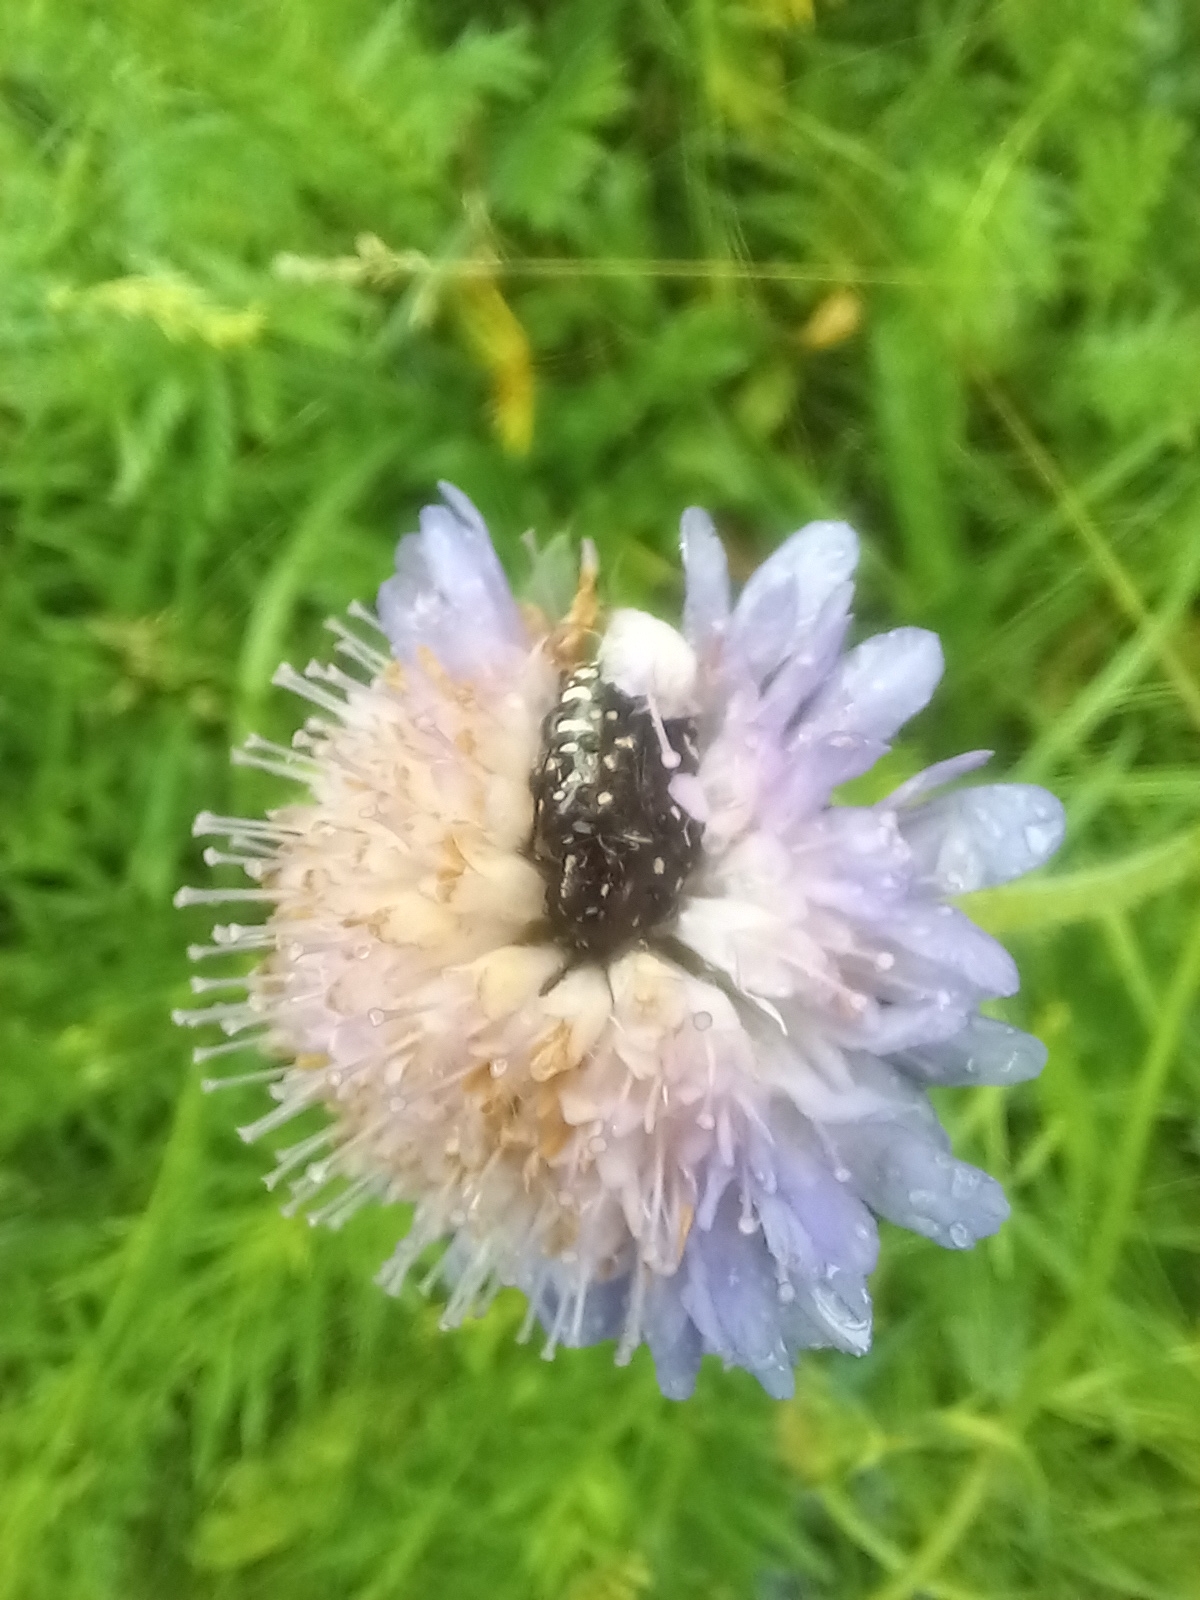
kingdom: Animalia
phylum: Arthropoda
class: Insecta
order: Coleoptera
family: Scarabaeidae
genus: Oxythyrea
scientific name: Oxythyrea funesta
